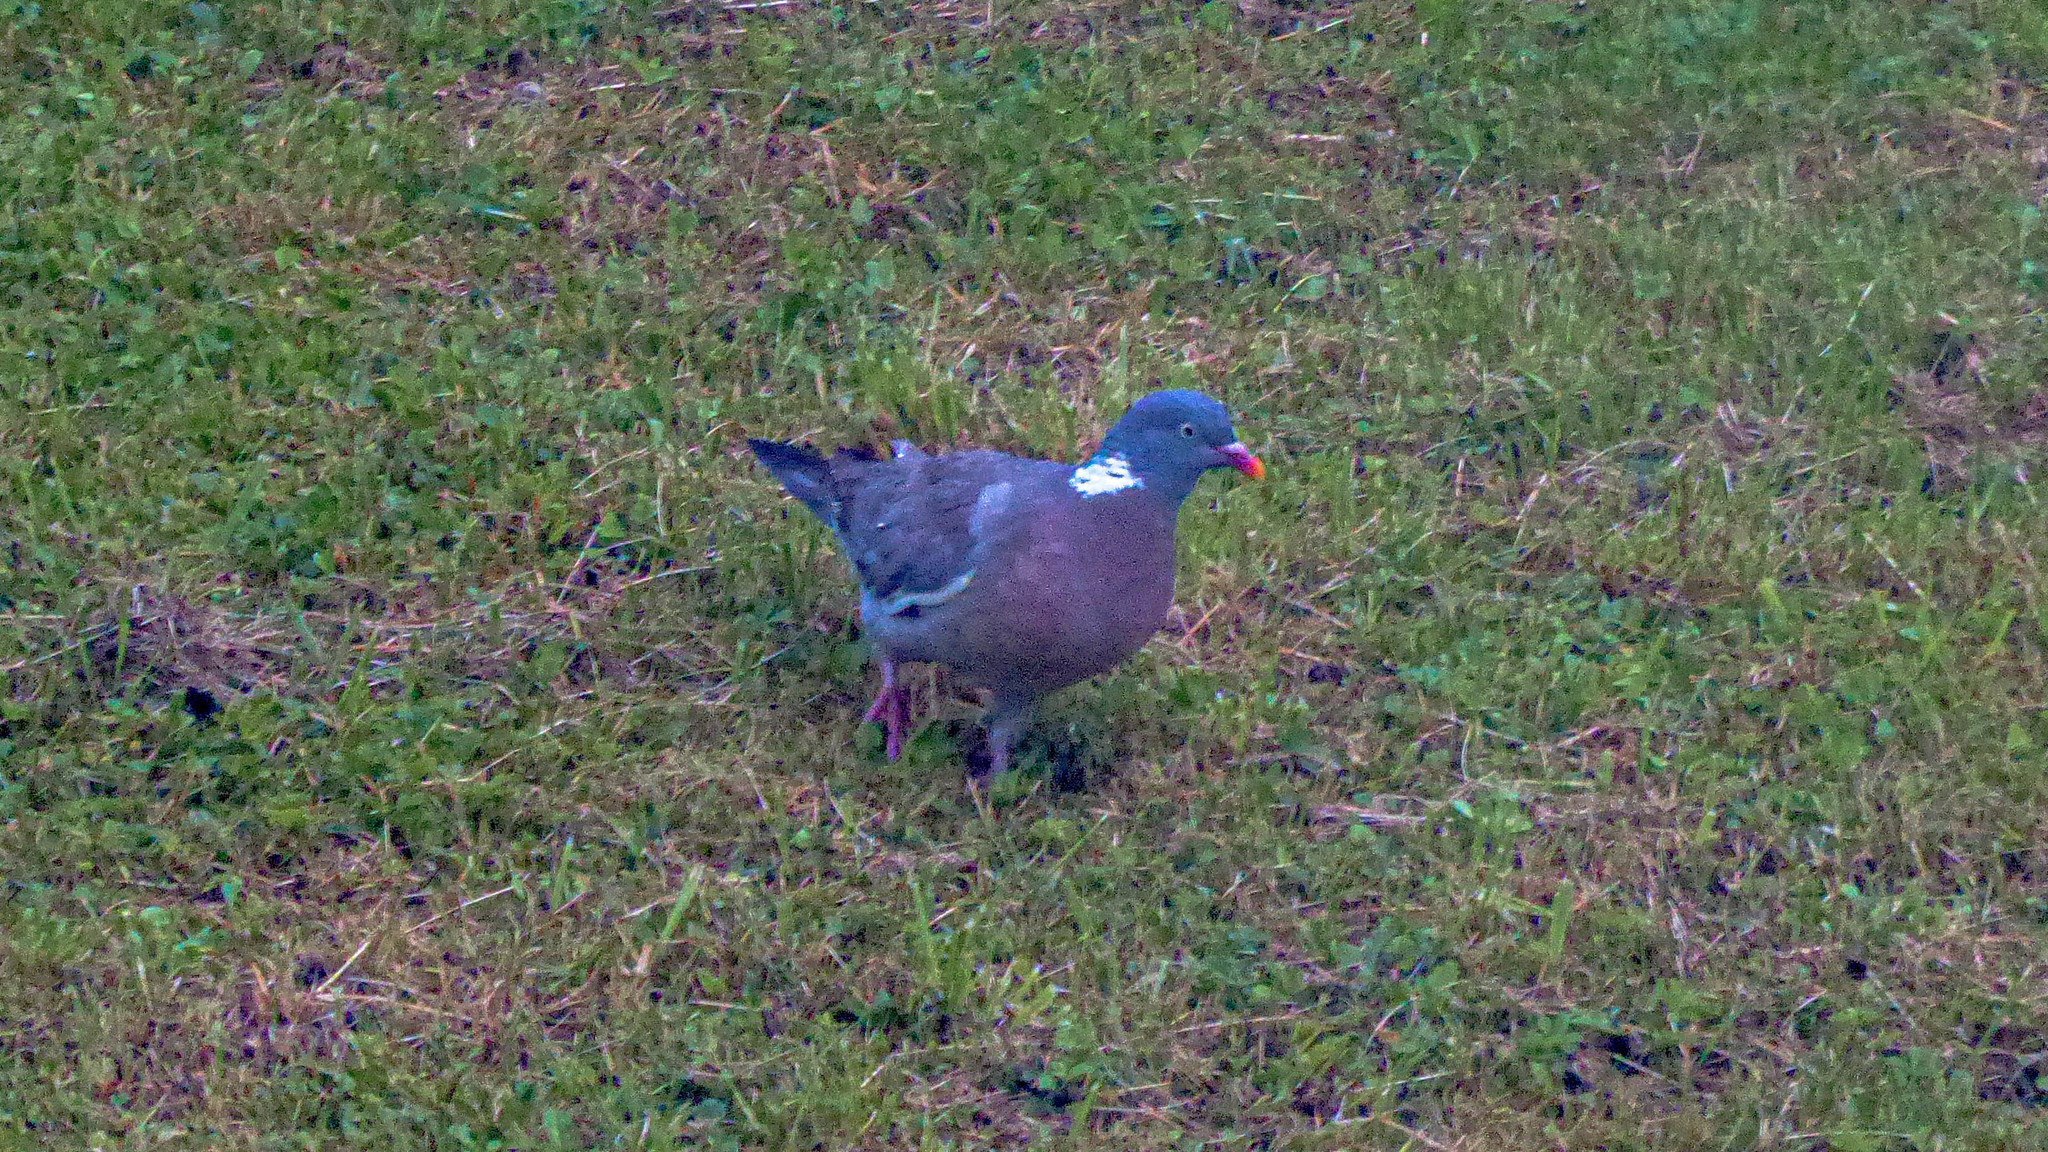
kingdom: Animalia
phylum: Chordata
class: Aves
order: Columbiformes
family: Columbidae
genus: Columba
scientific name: Columba palumbus
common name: Common wood pigeon
